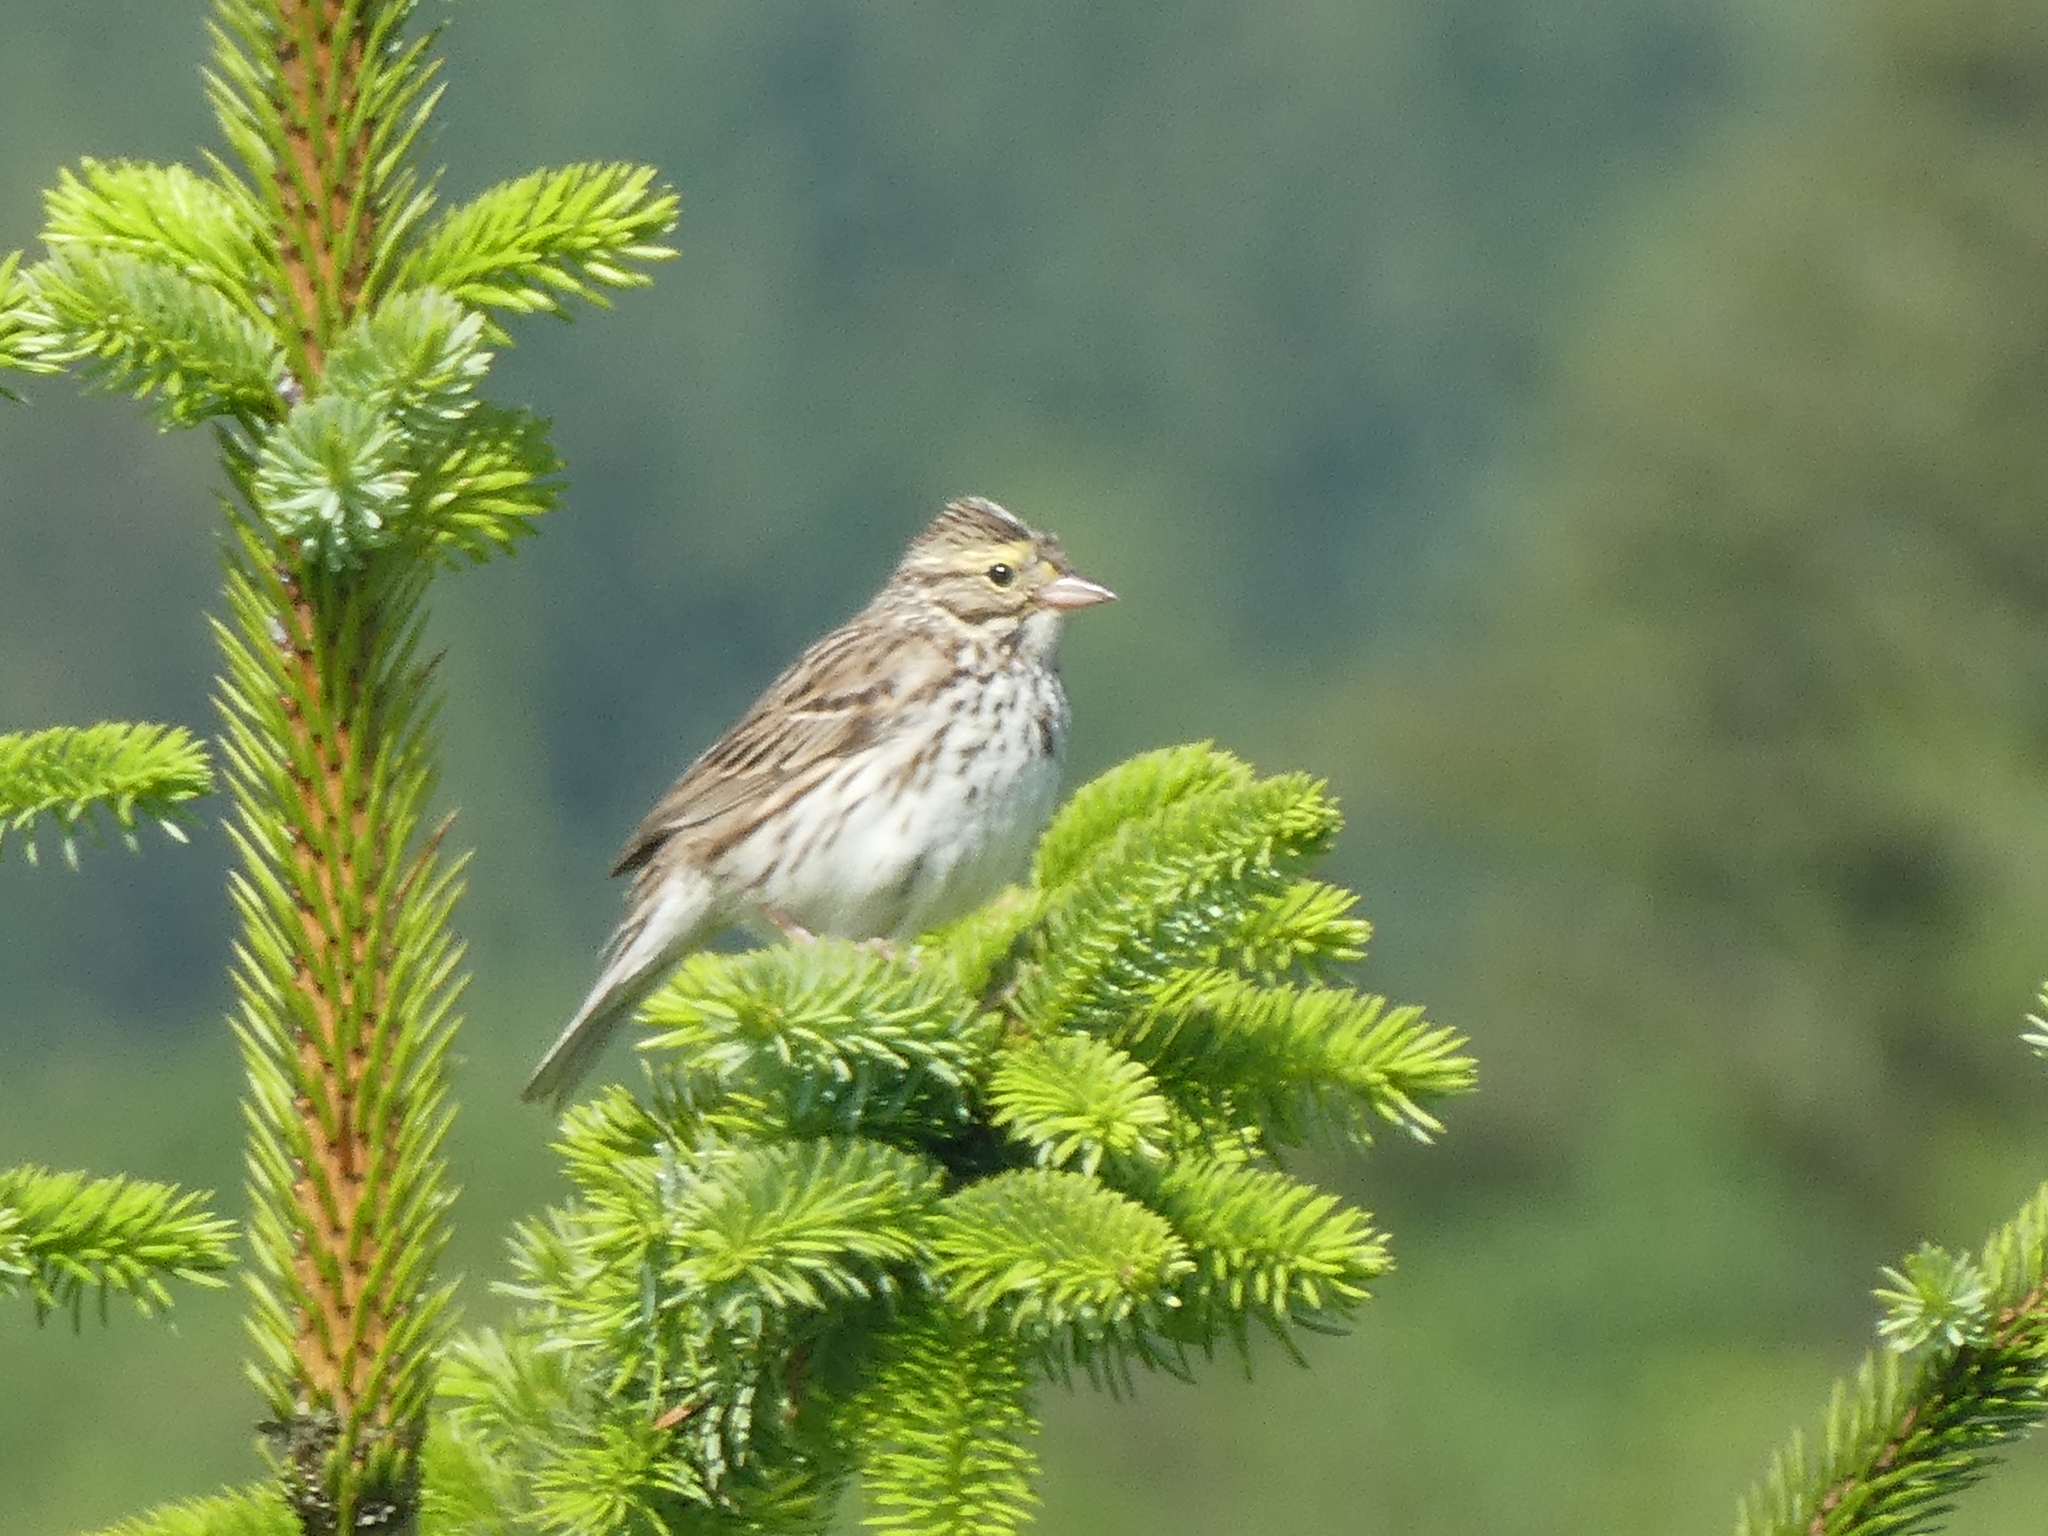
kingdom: Animalia
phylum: Chordata
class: Aves
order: Passeriformes
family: Passerellidae
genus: Passerculus
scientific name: Passerculus sandwichensis
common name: Savannah sparrow
